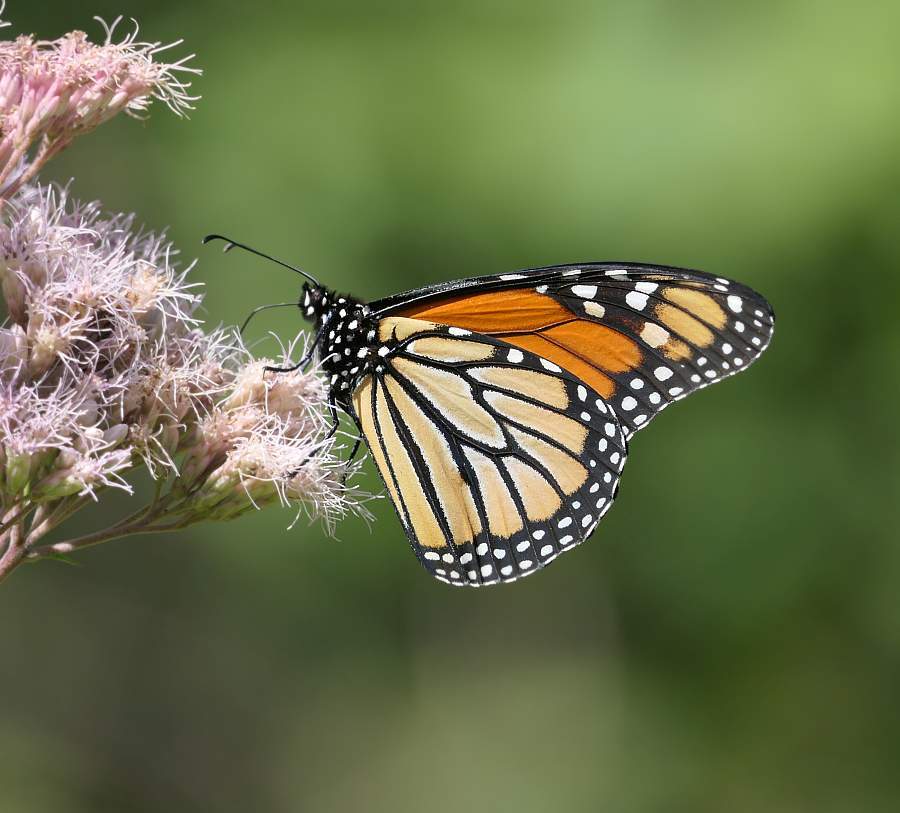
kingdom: Animalia
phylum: Arthropoda
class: Insecta
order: Lepidoptera
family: Nymphalidae
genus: Danaus
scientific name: Danaus plexippus
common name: Monarch
